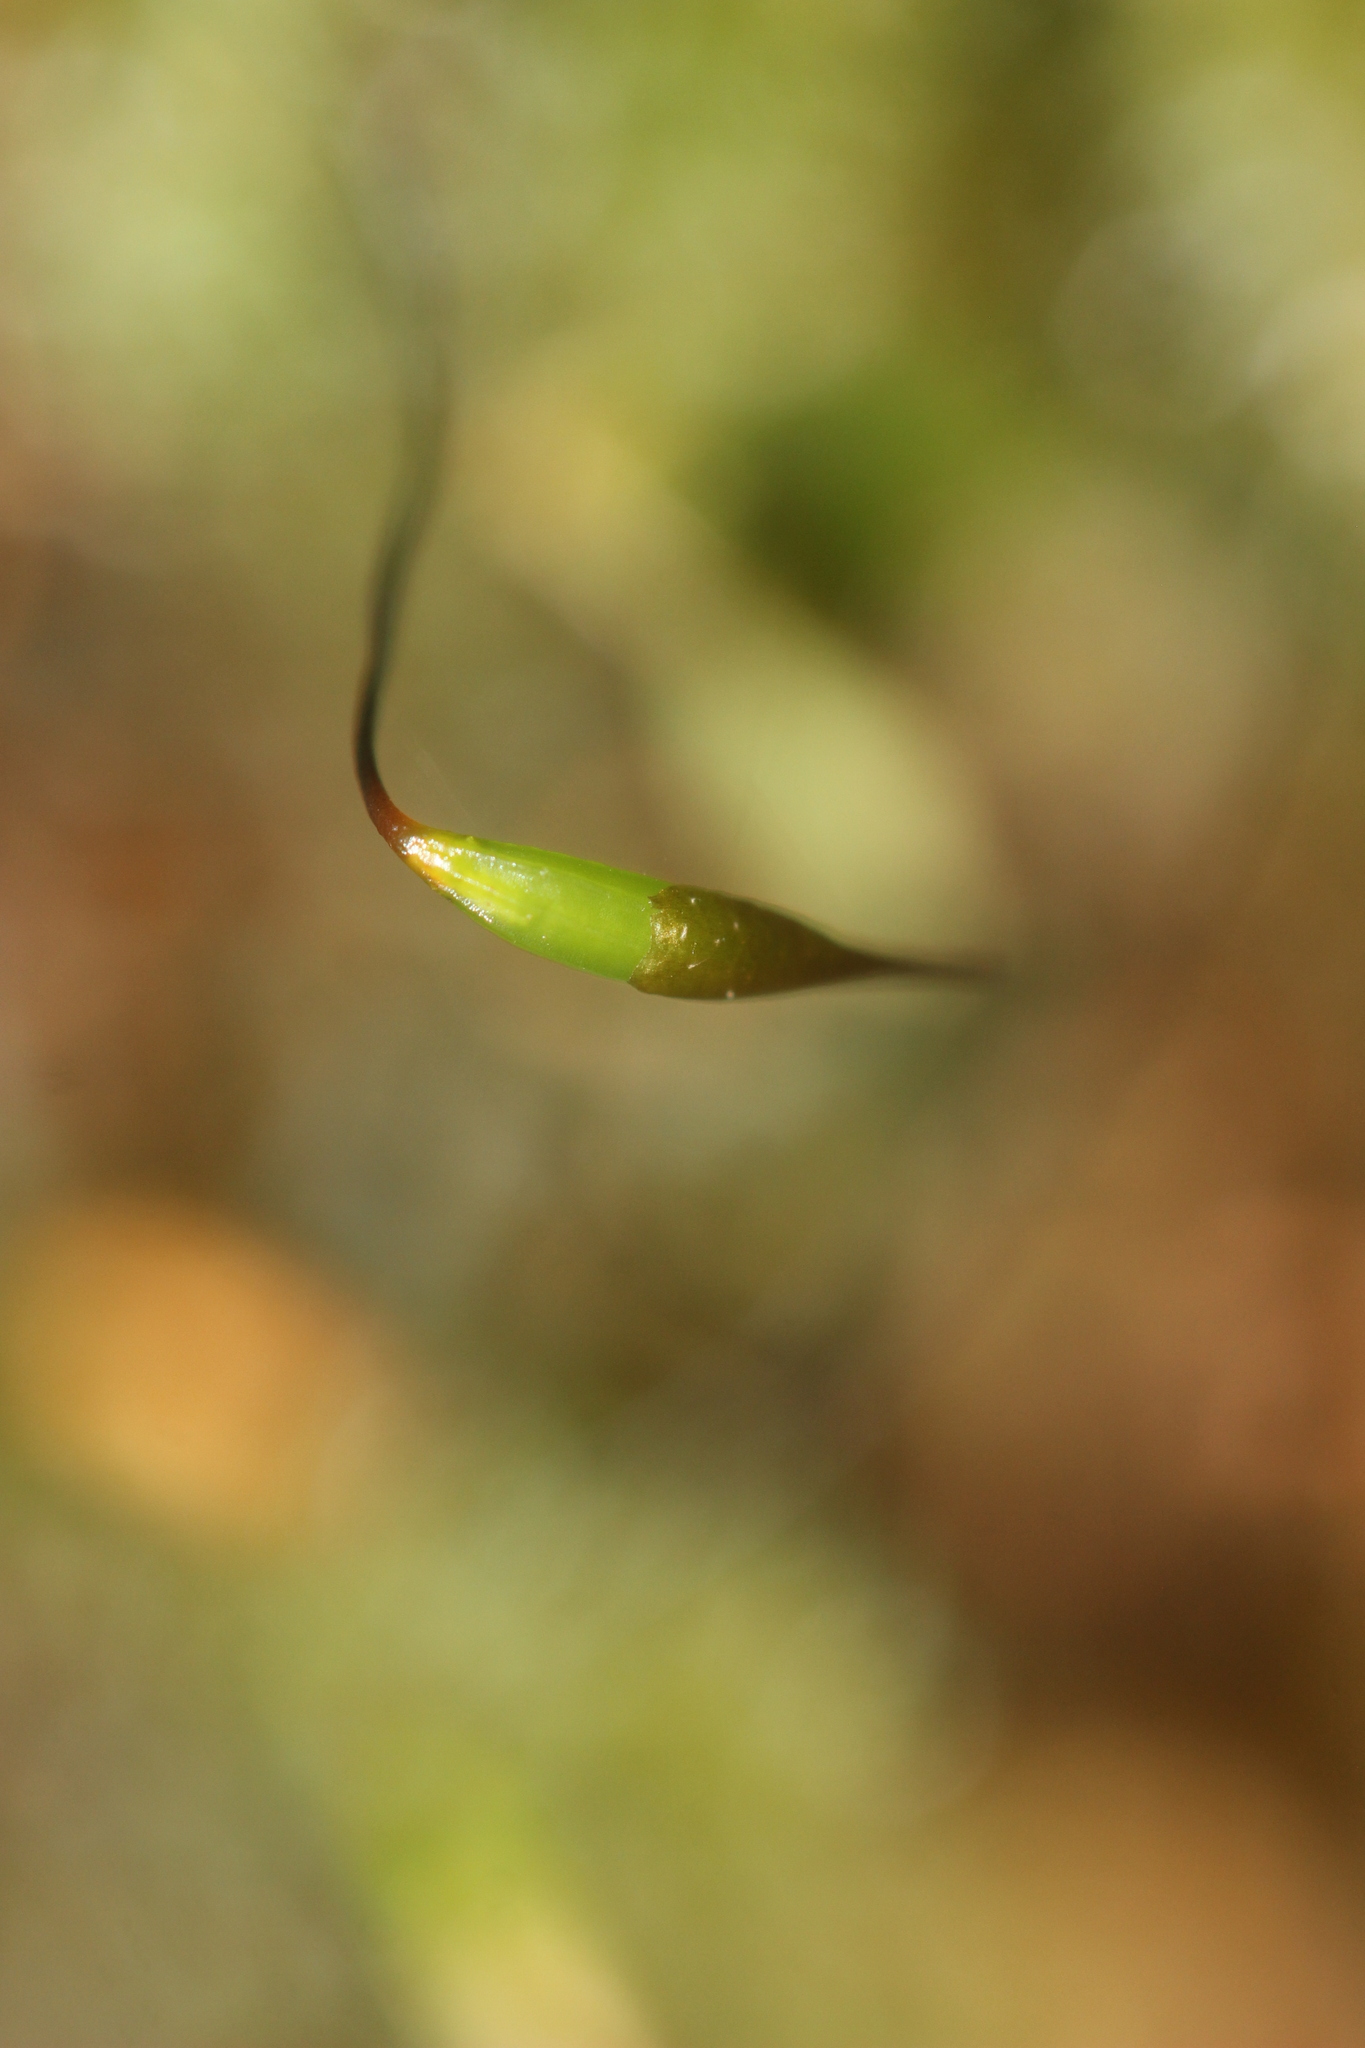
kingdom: Plantae
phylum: Bryophyta
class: Bryopsida
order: Ptychomniales
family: Ptychomniaceae
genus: Ptychomnion
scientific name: Ptychomnion aciculare
